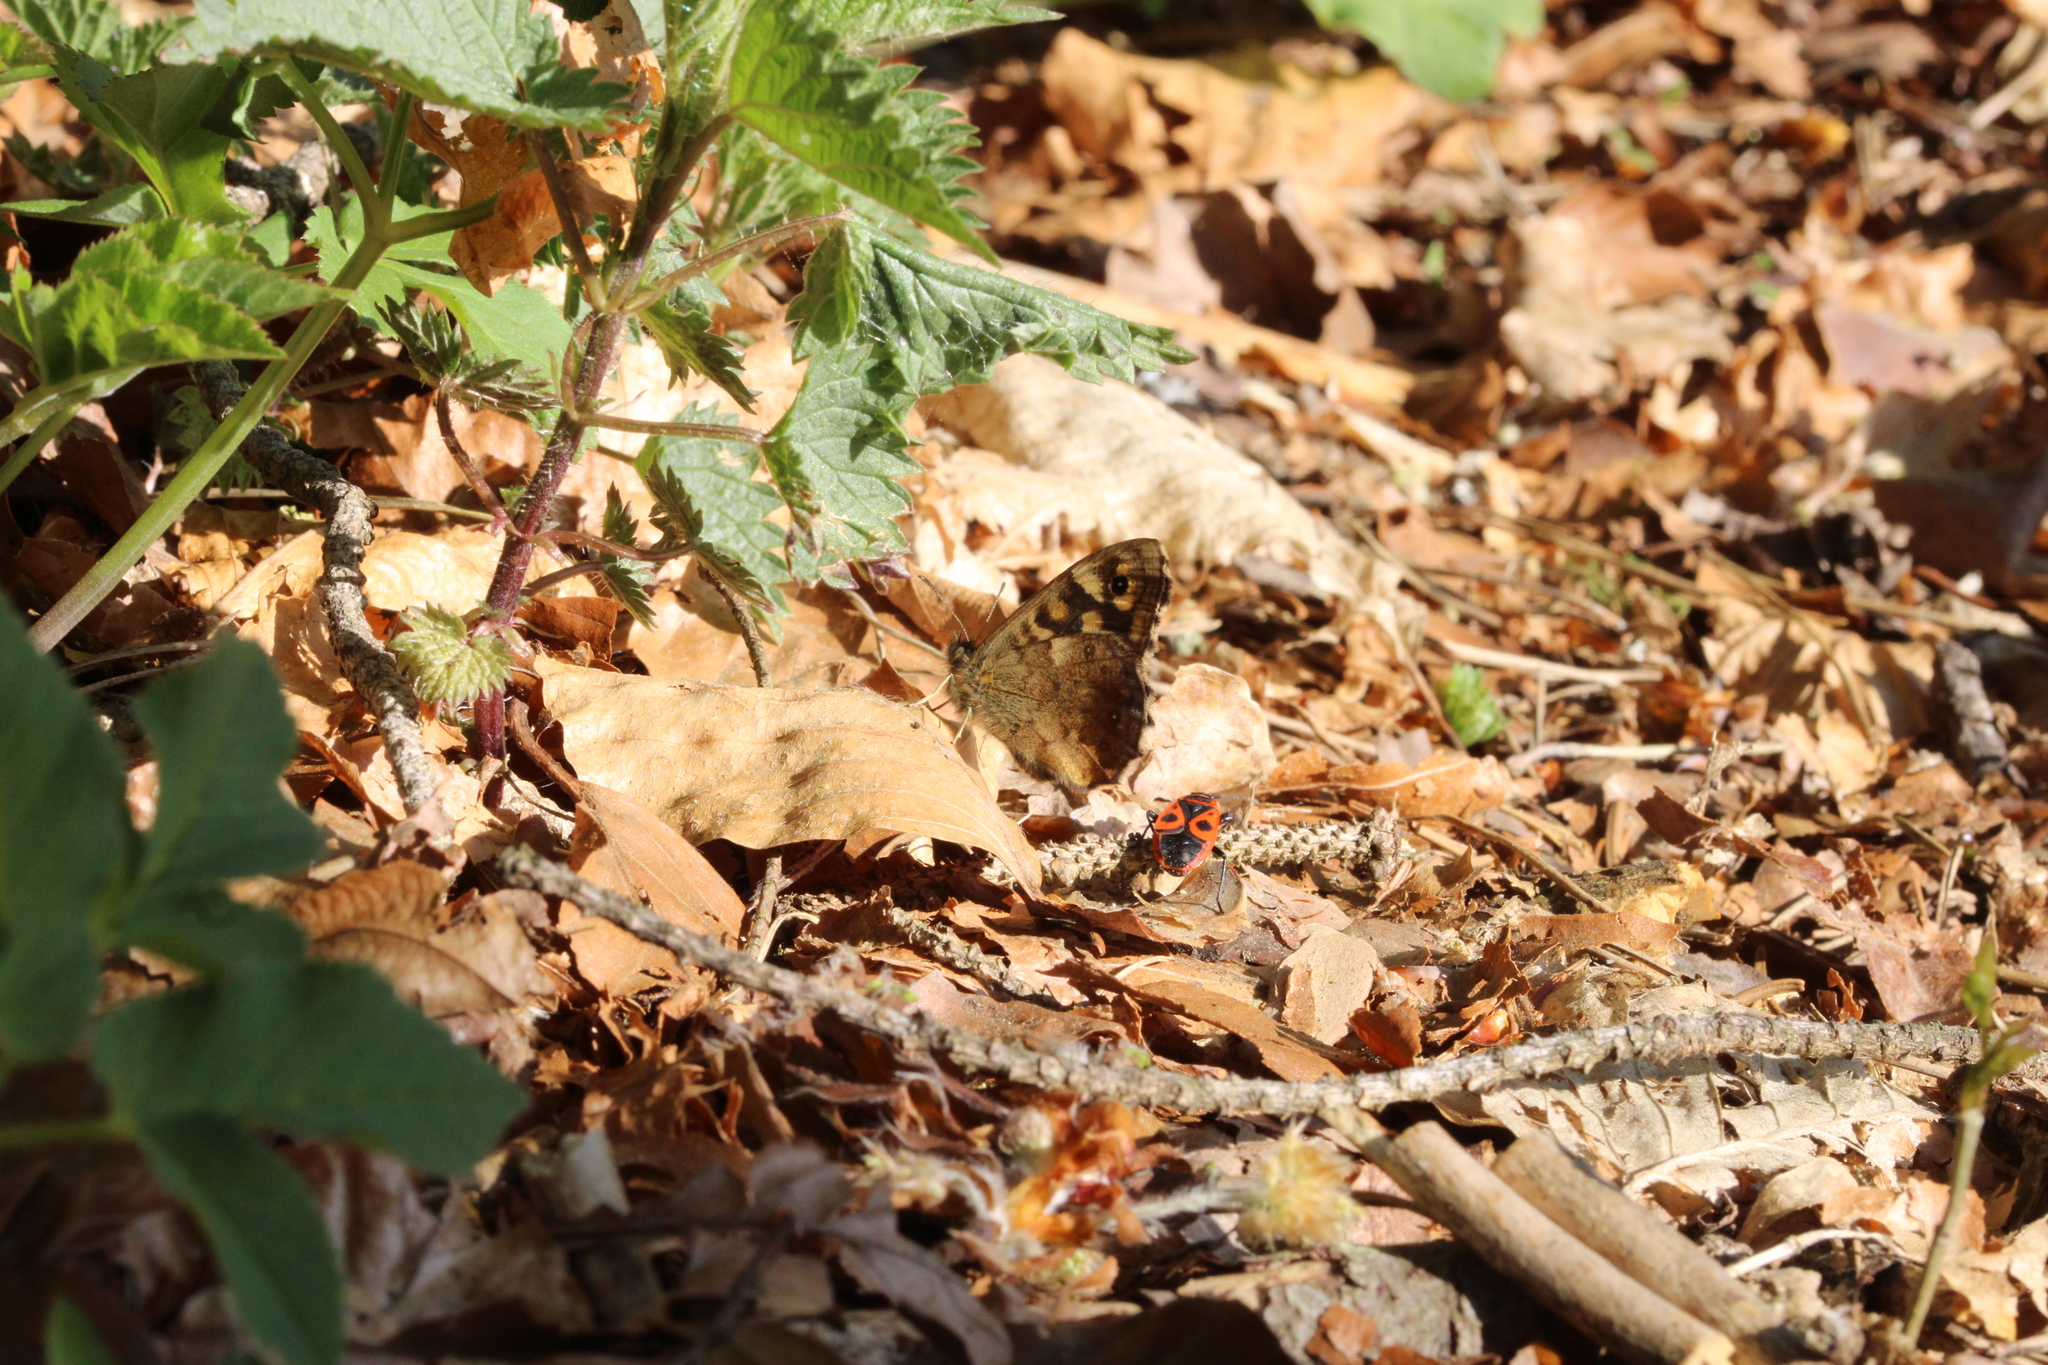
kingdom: Animalia
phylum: Arthropoda
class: Insecta
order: Lepidoptera
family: Nymphalidae
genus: Pararge
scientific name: Pararge aegeria
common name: Speckled wood
